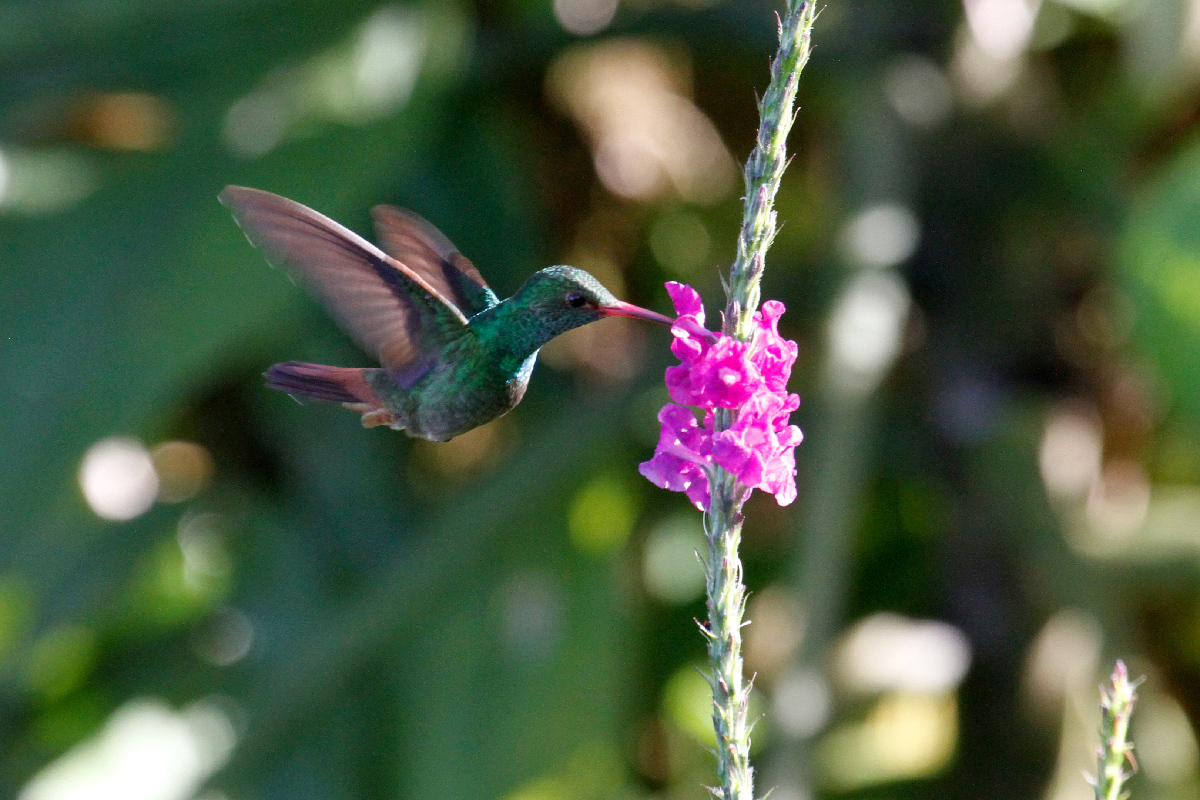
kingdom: Animalia
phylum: Chordata
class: Aves
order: Apodiformes
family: Trochilidae
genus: Amazilia
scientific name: Amazilia tzacatl
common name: Rufous-tailed hummingbird
